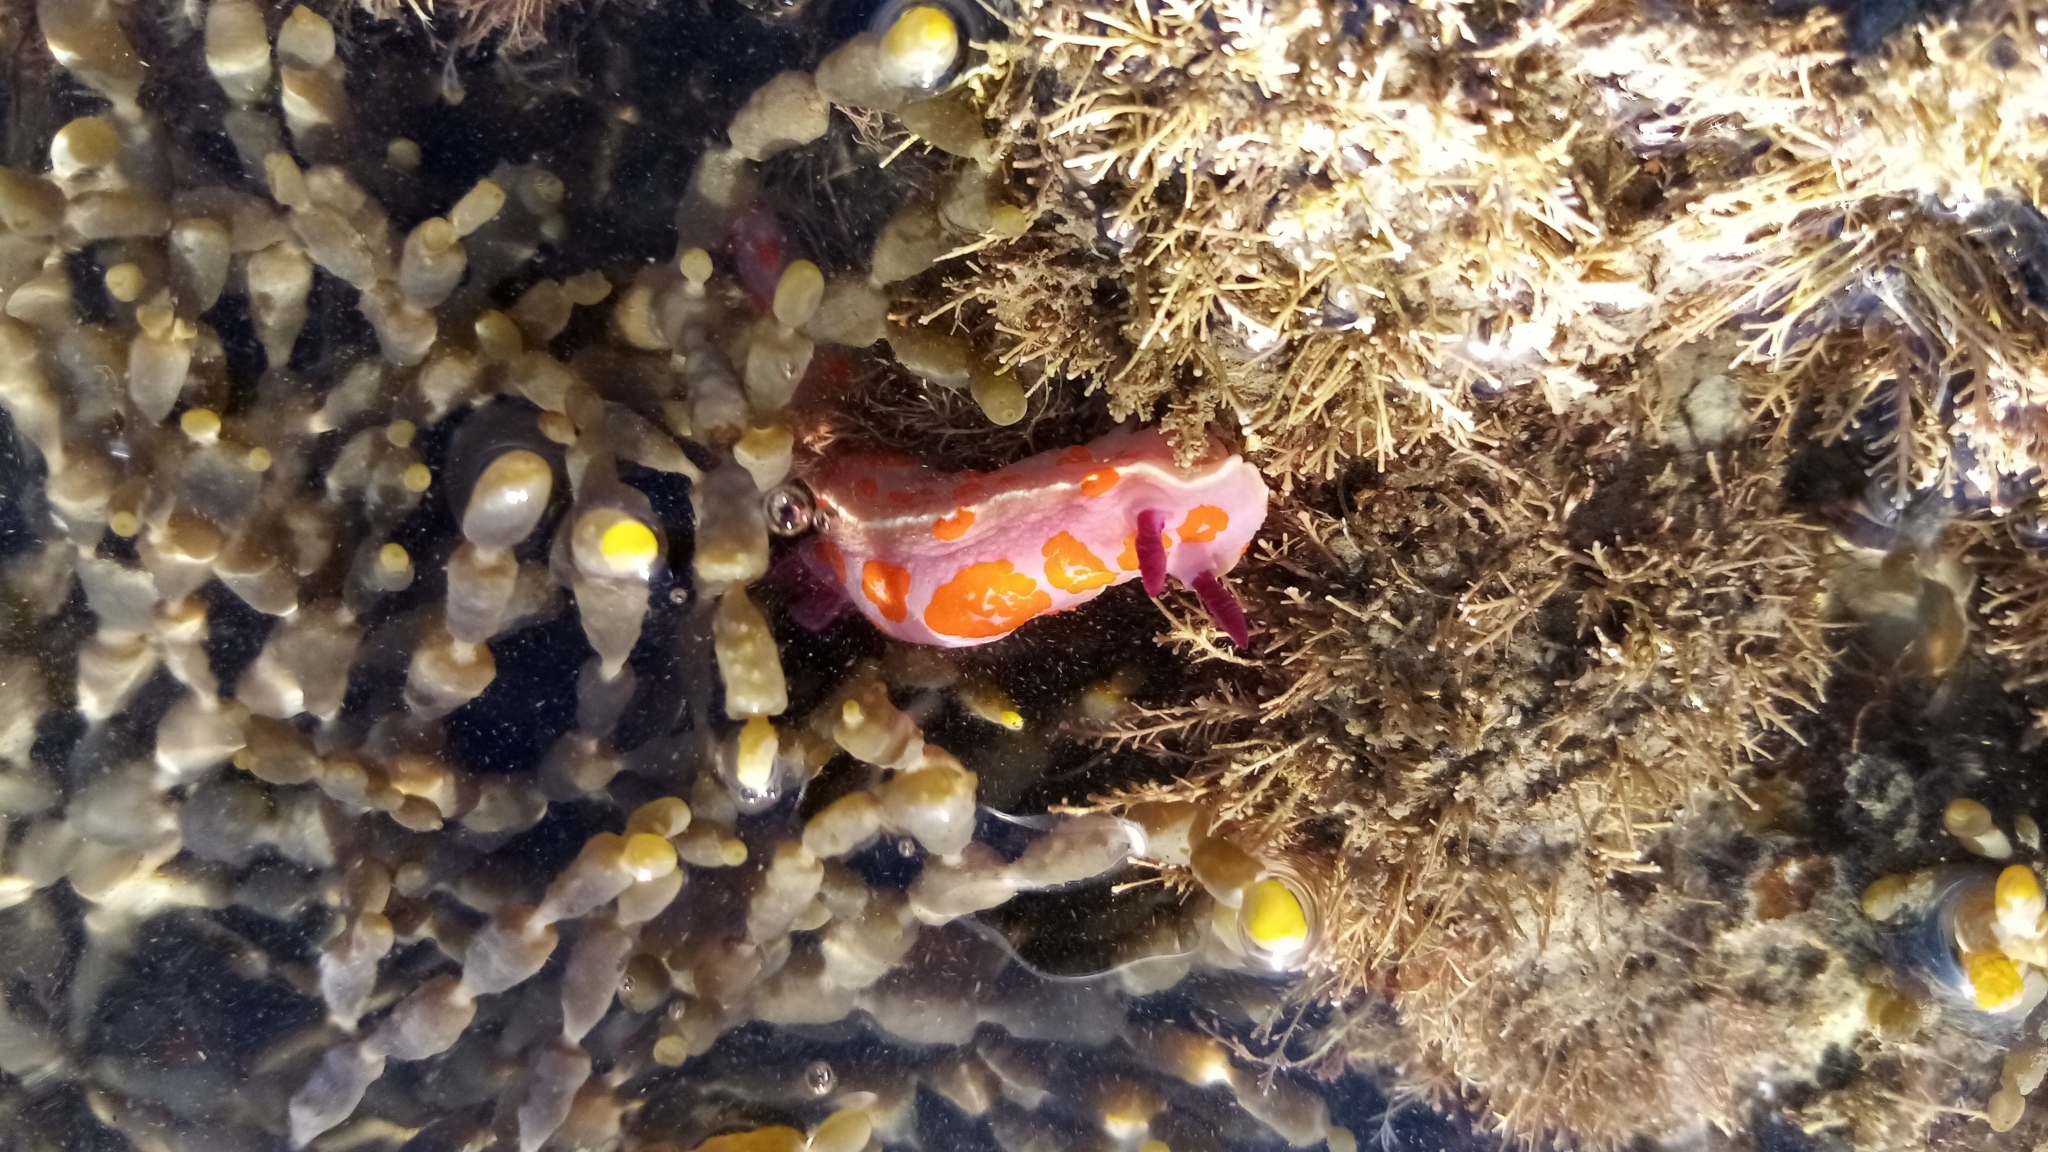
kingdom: Animalia
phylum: Mollusca
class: Gastropoda
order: Nudibranchia
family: Chromodorididae
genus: Ceratosoma
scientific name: Ceratosoma amoenum
